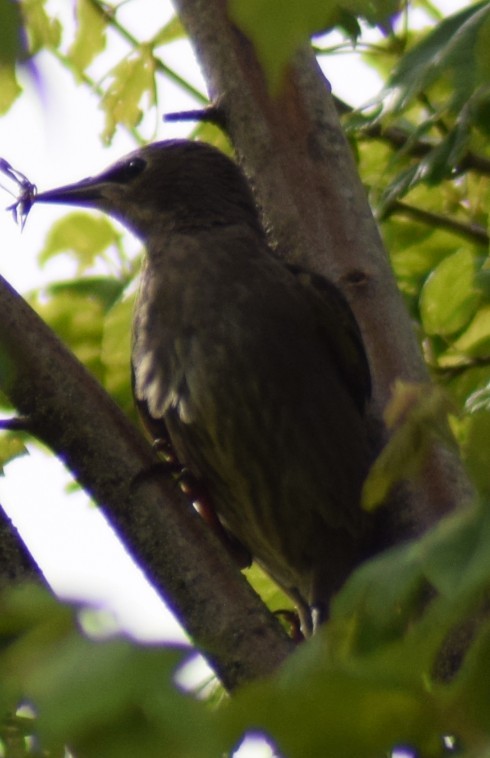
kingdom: Animalia
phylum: Chordata
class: Aves
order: Passeriformes
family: Sturnidae
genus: Sturnus
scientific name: Sturnus vulgaris
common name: Common starling
